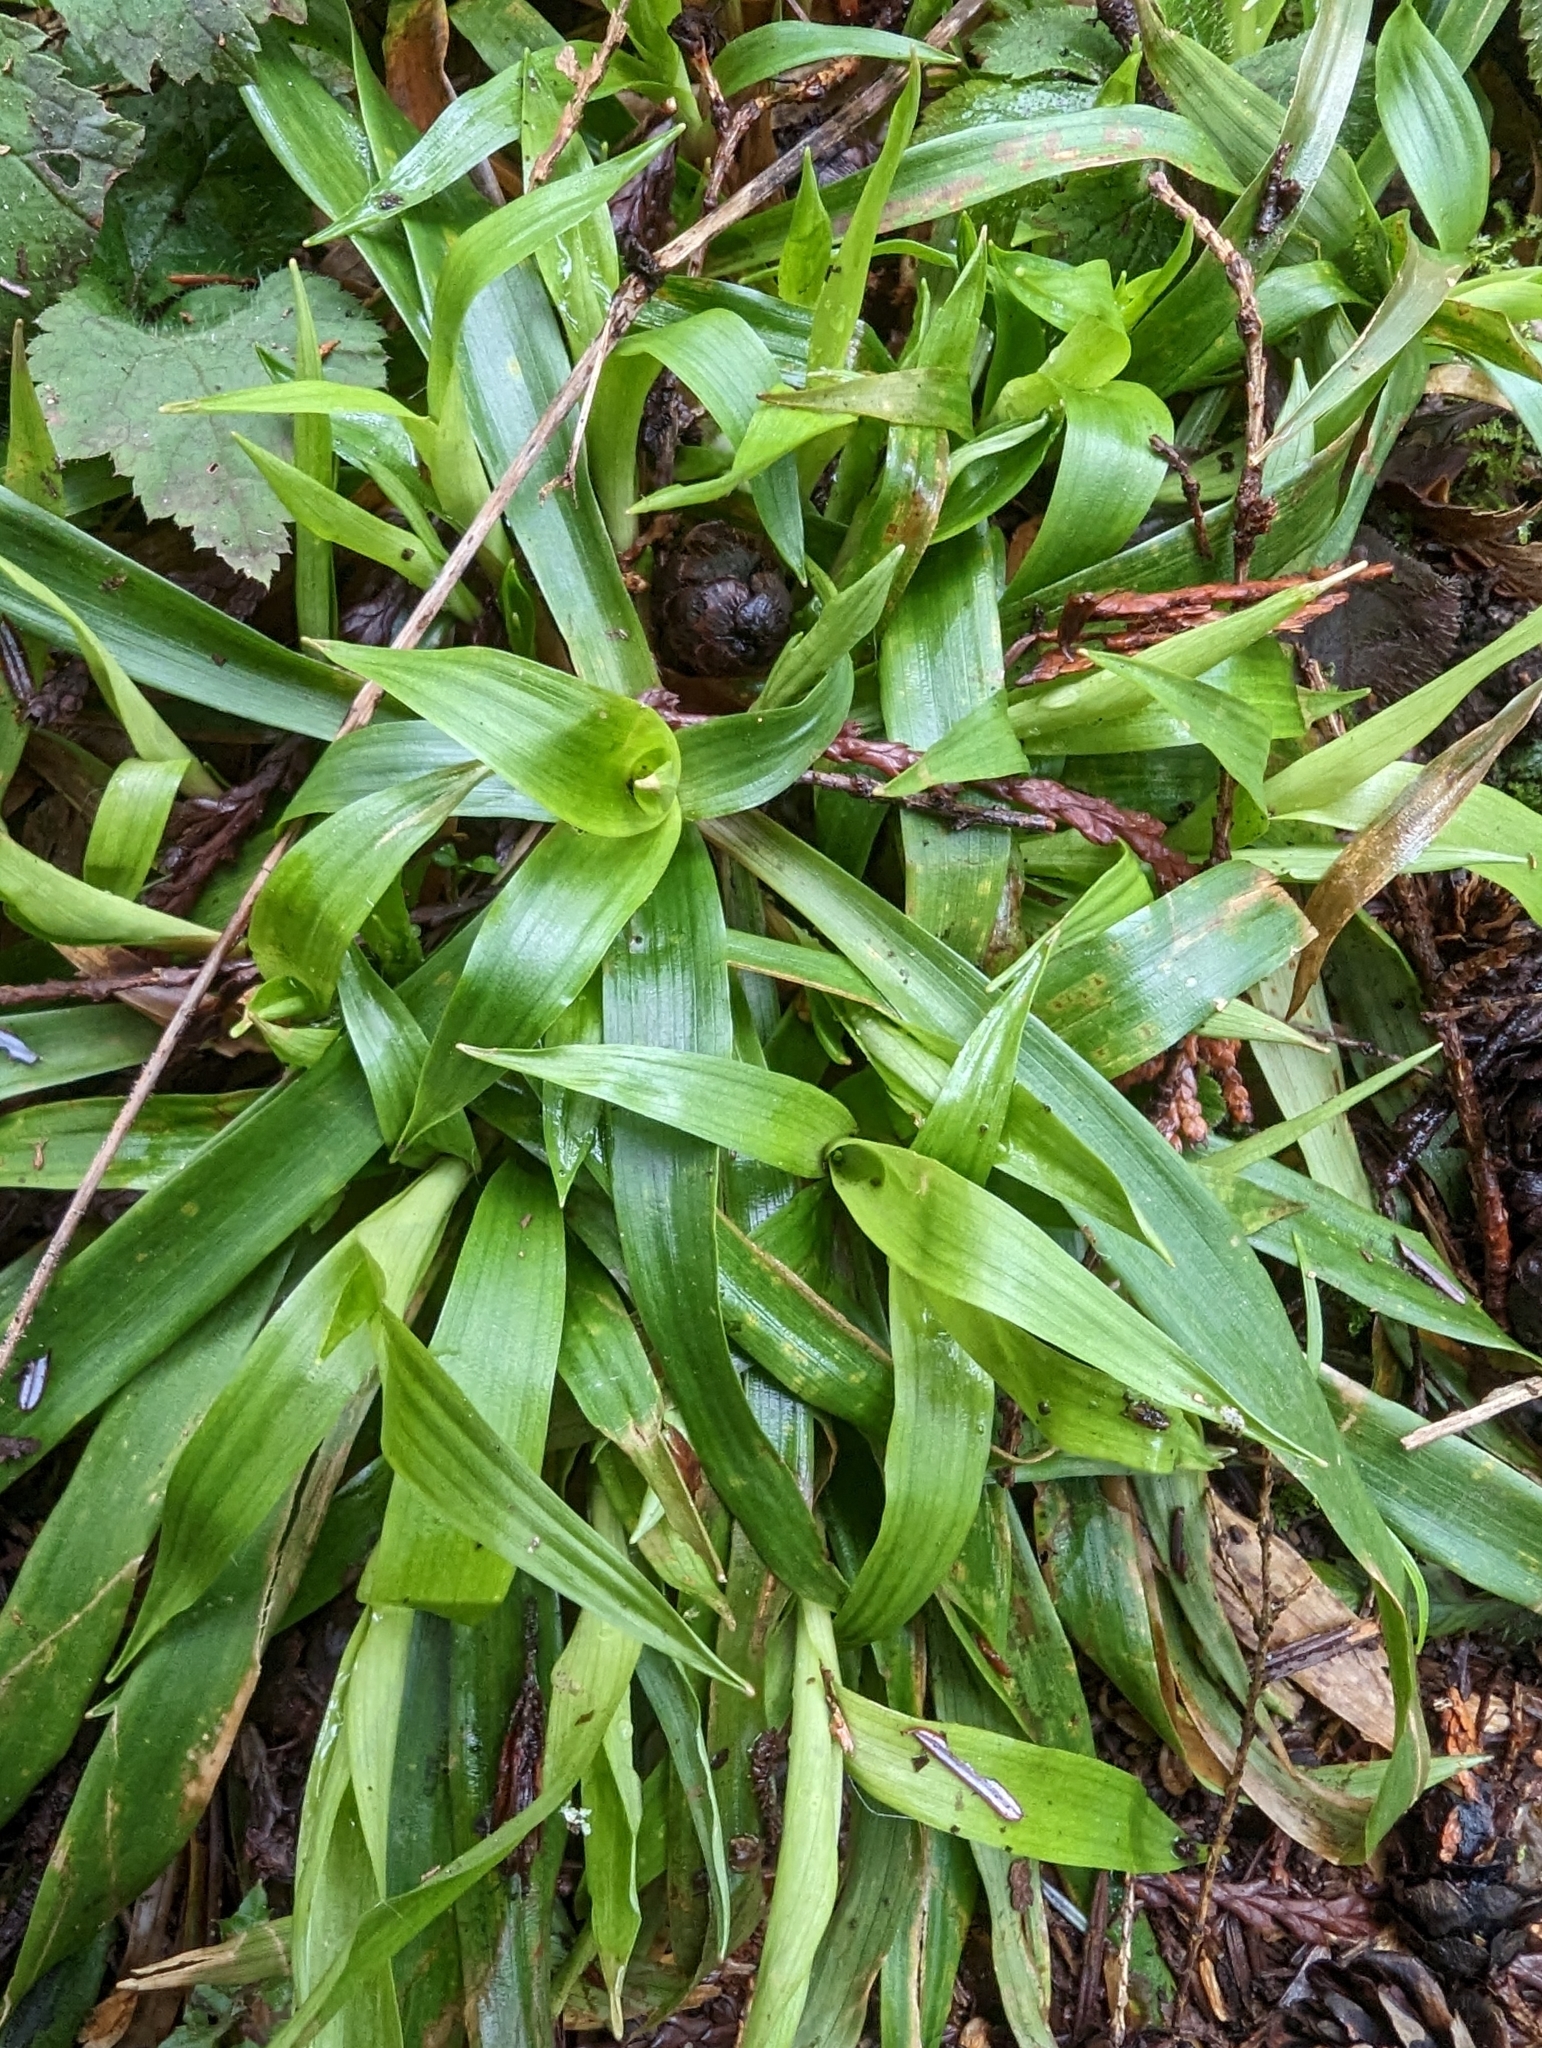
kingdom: Plantae
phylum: Tracheophyta
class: Liliopsida
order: Poales
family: Juncaceae
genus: Luzula
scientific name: Luzula parviflora
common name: Millet woodrush
